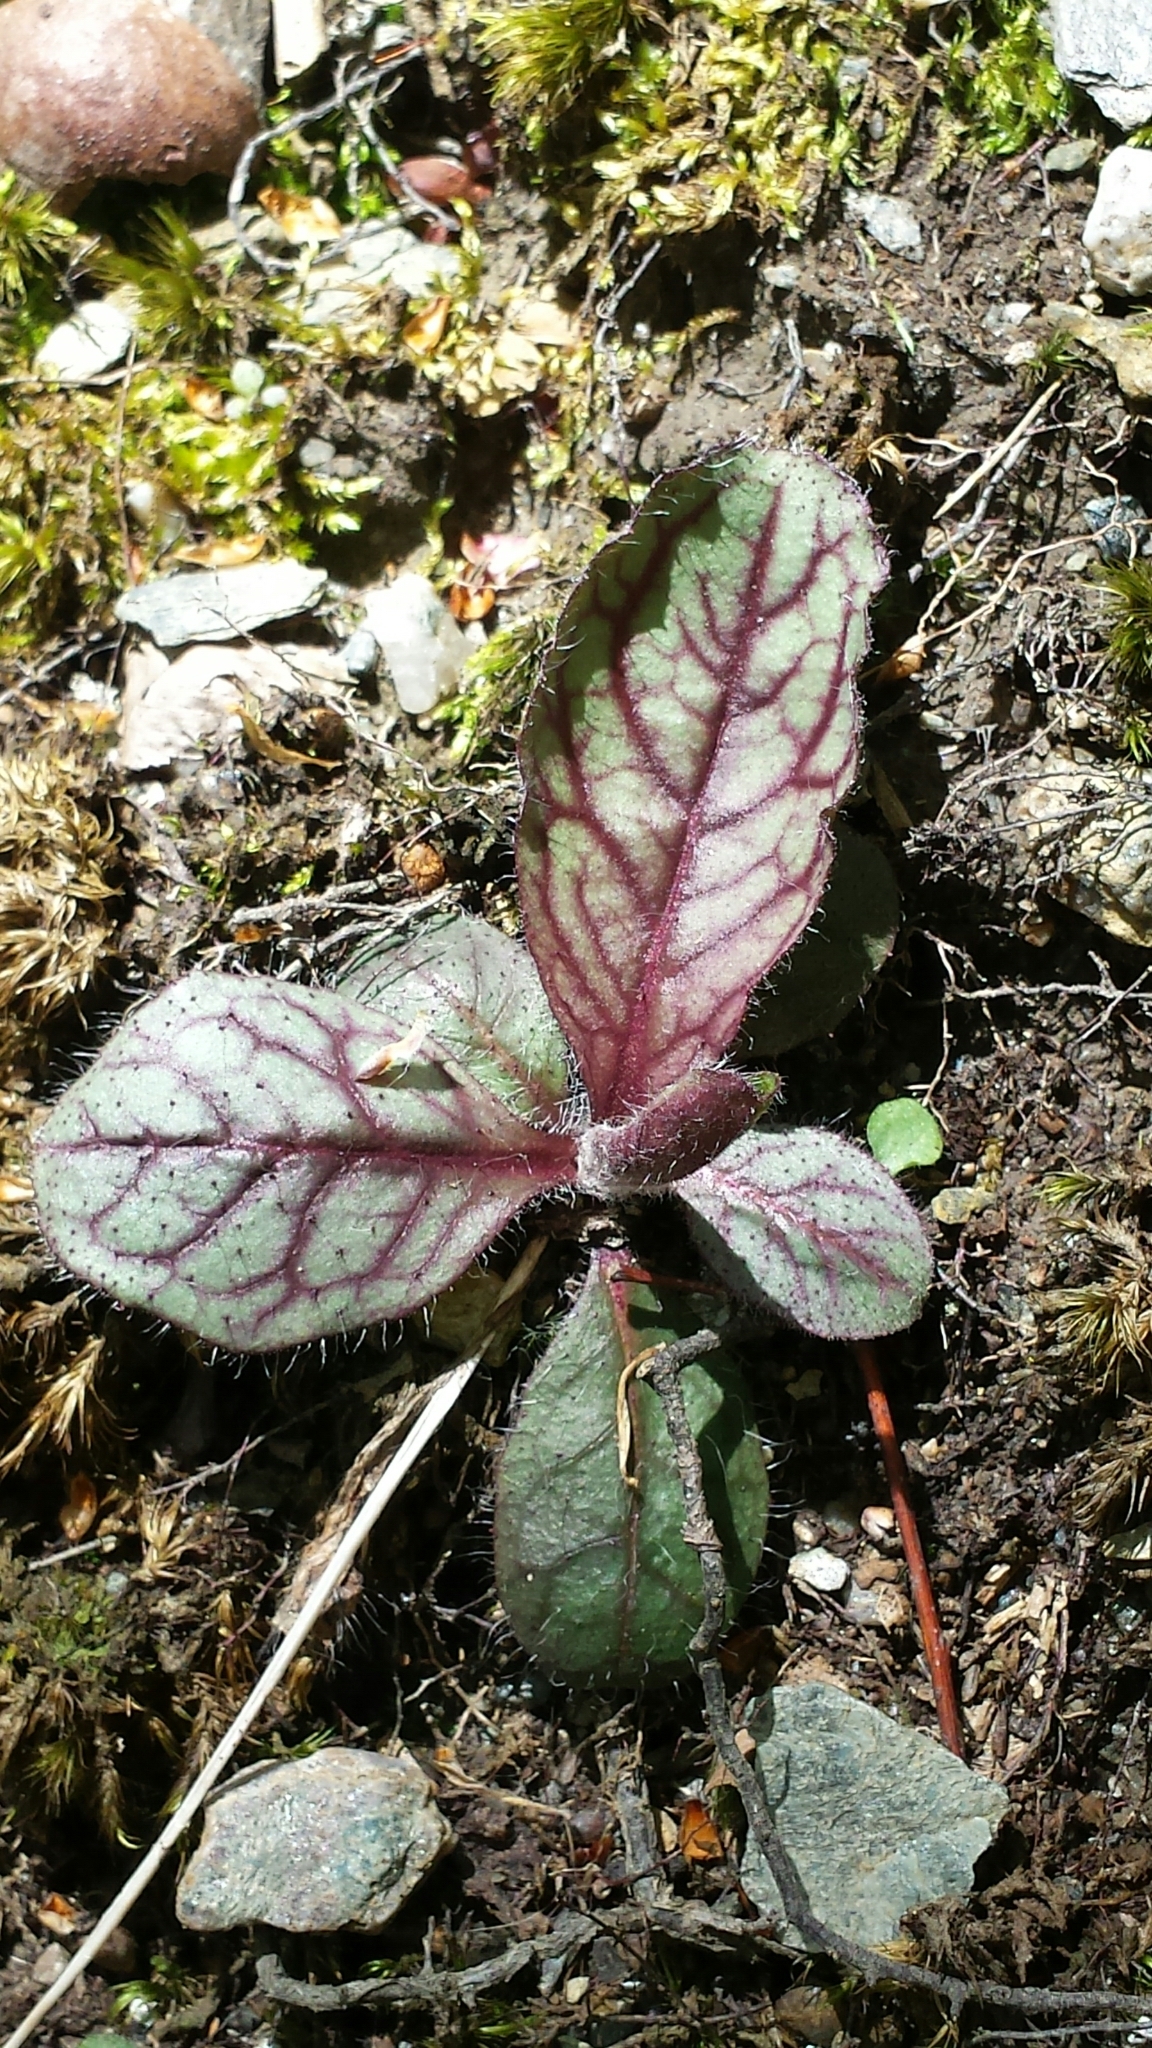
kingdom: Plantae
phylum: Tracheophyta
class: Magnoliopsida
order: Asterales
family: Asteraceae
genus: Hieracium
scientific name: Hieracium venosum
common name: Rattlesnake hawkweed
